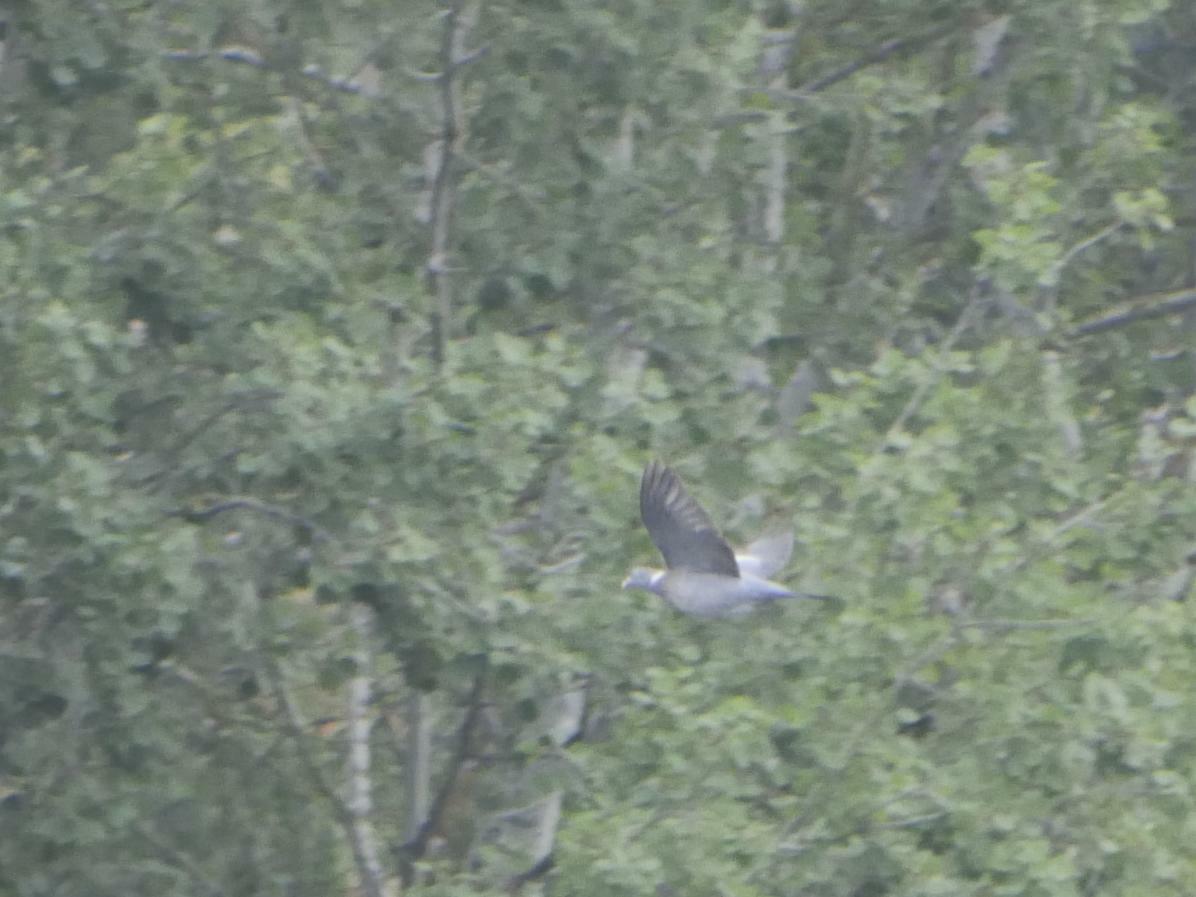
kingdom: Animalia
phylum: Chordata
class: Aves
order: Columbiformes
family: Columbidae
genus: Columba
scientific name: Columba palumbus
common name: Common wood pigeon
